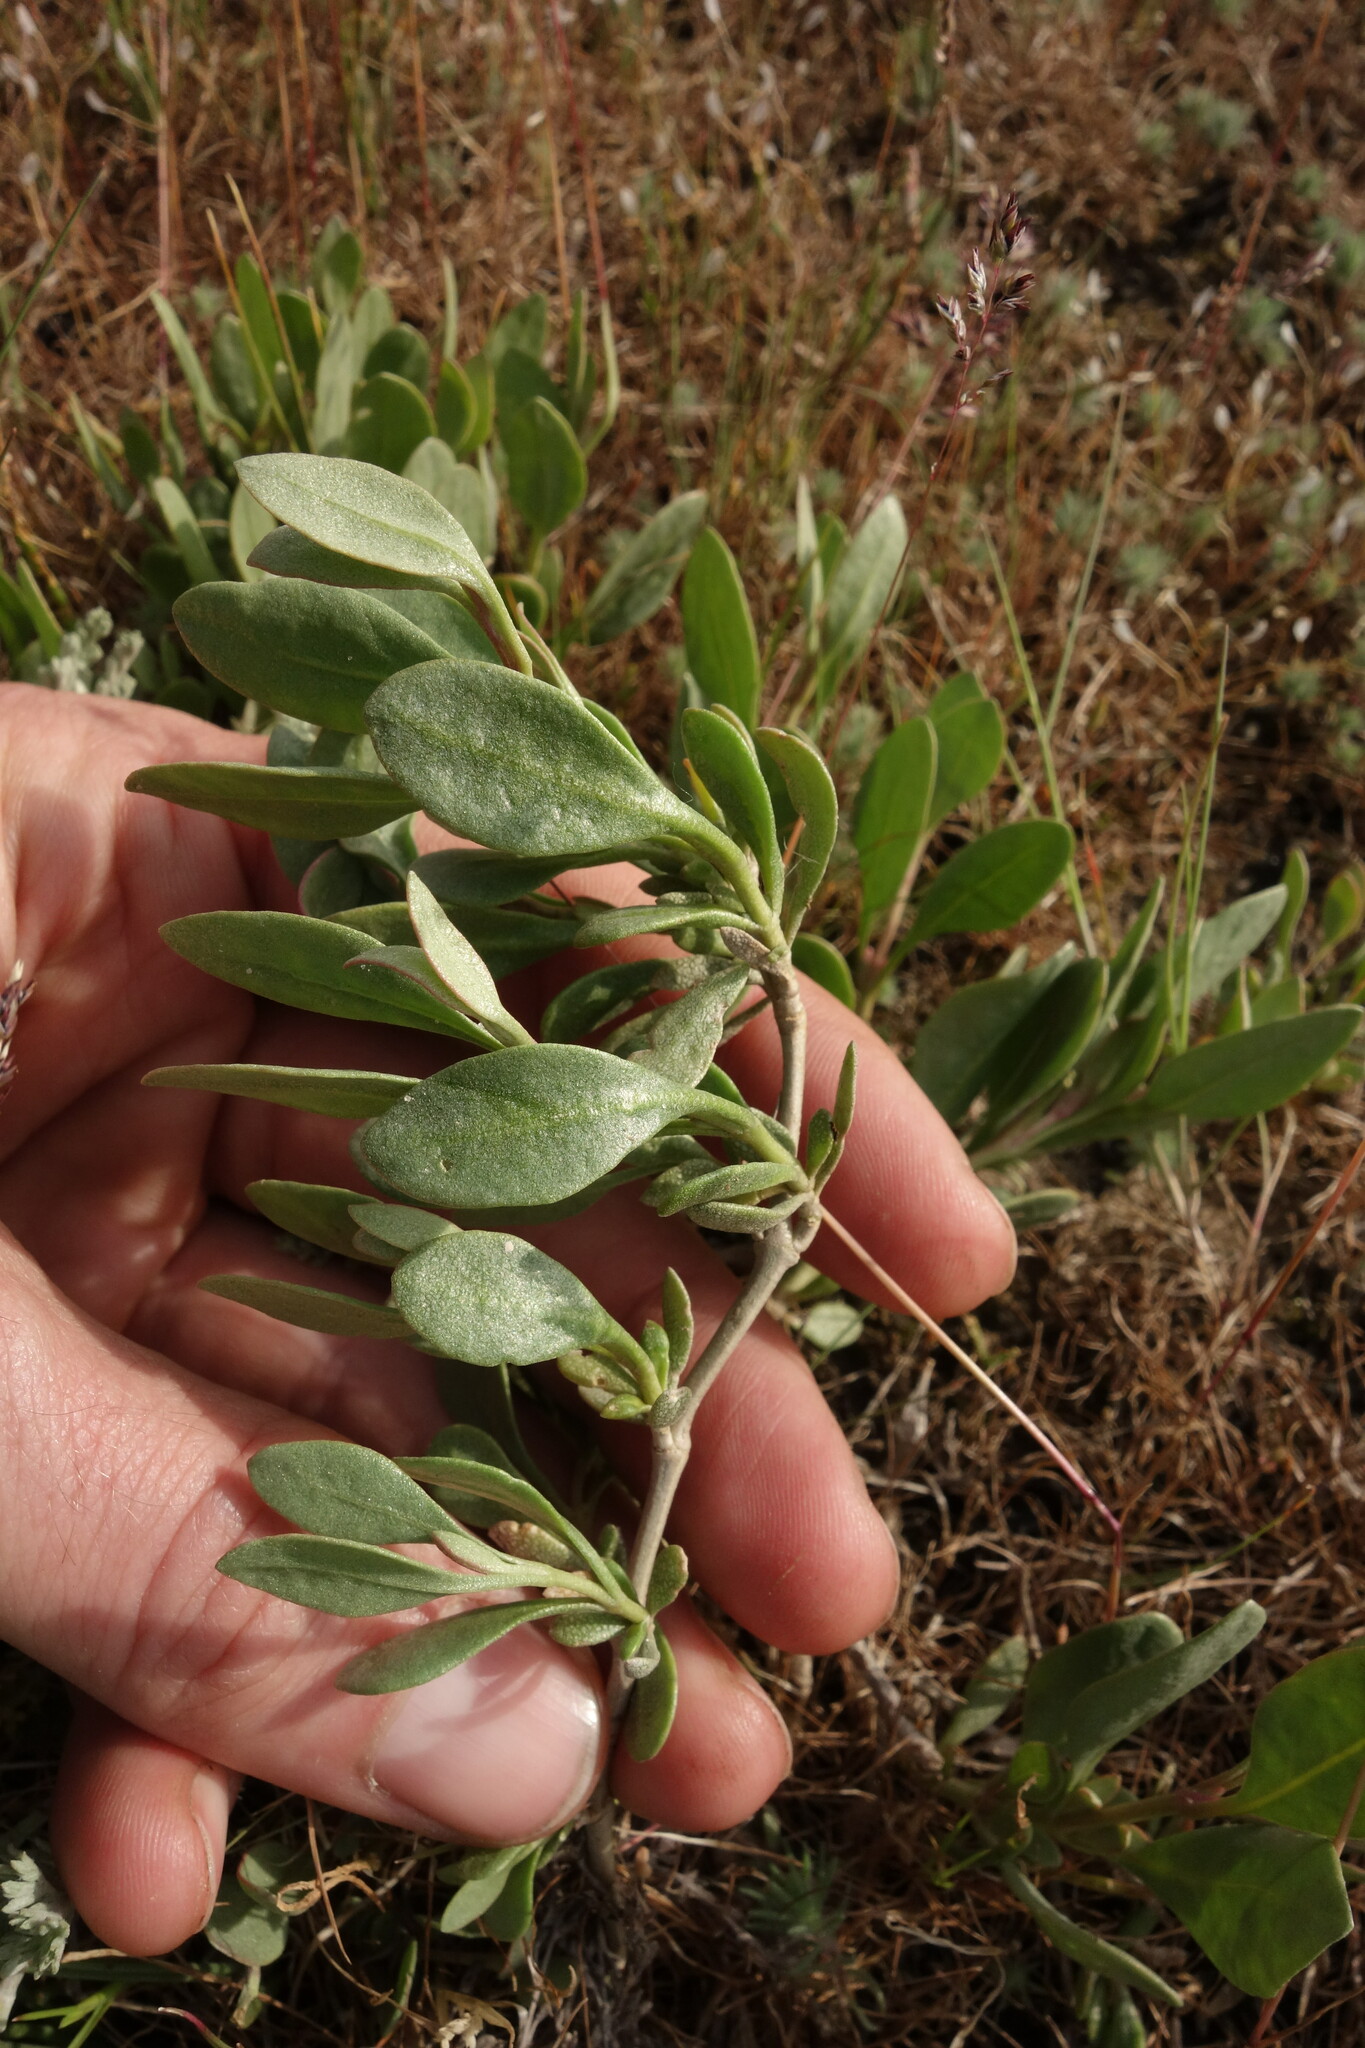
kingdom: Plantae
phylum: Tracheophyta
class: Magnoliopsida
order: Caryophyllales
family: Amaranthaceae
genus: Halimione
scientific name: Halimione verrucifera
